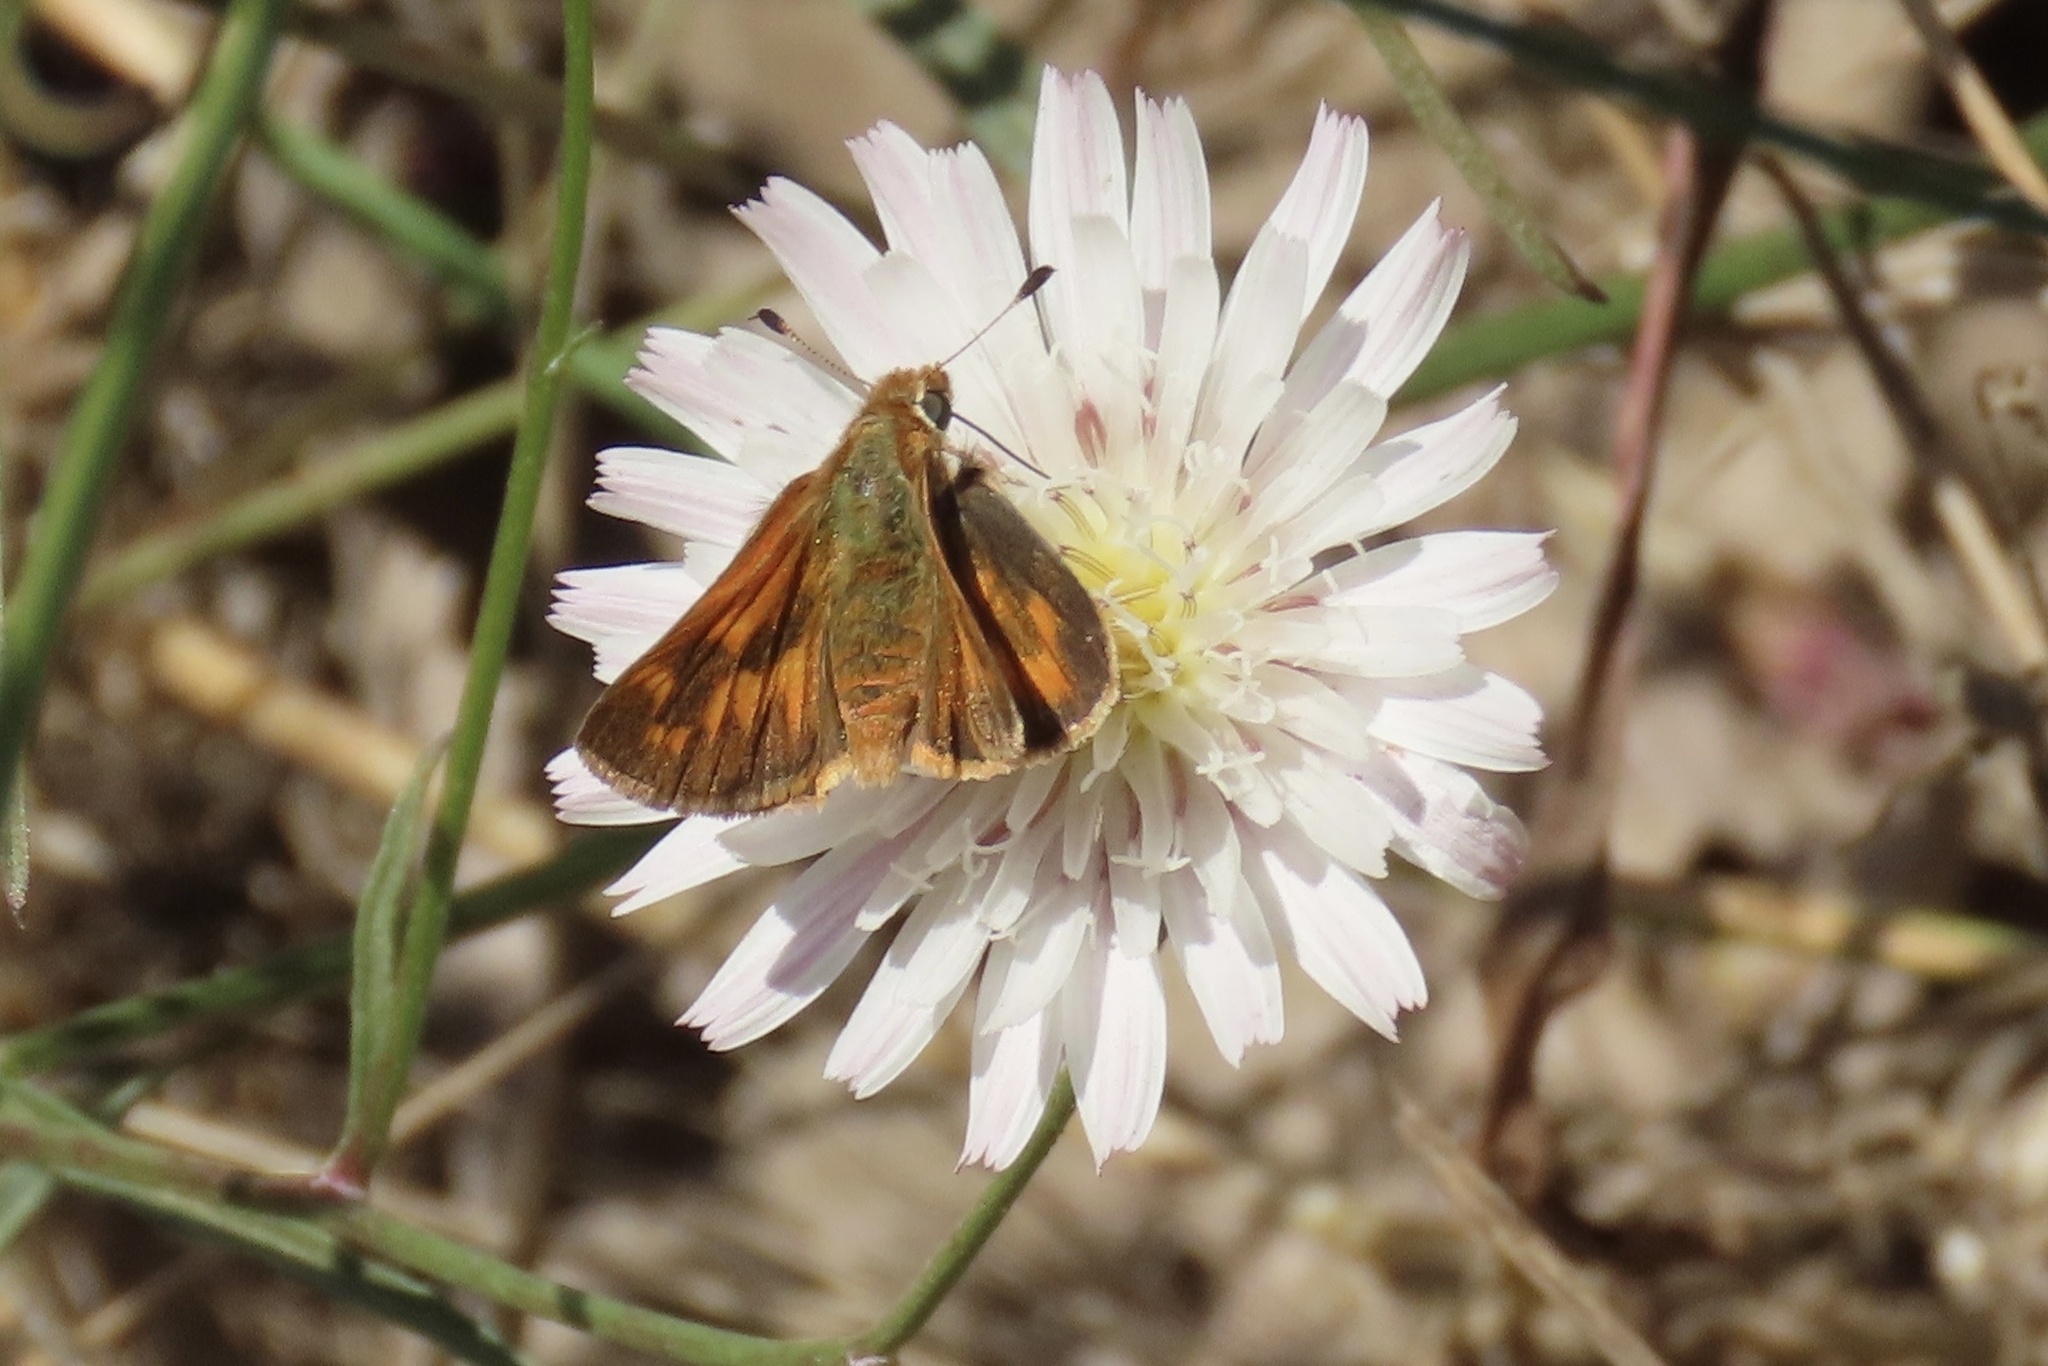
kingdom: Plantae
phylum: Tracheophyta
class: Magnoliopsida
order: Asterales
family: Asteraceae
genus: Malacothrix
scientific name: Malacothrix saxatilis
